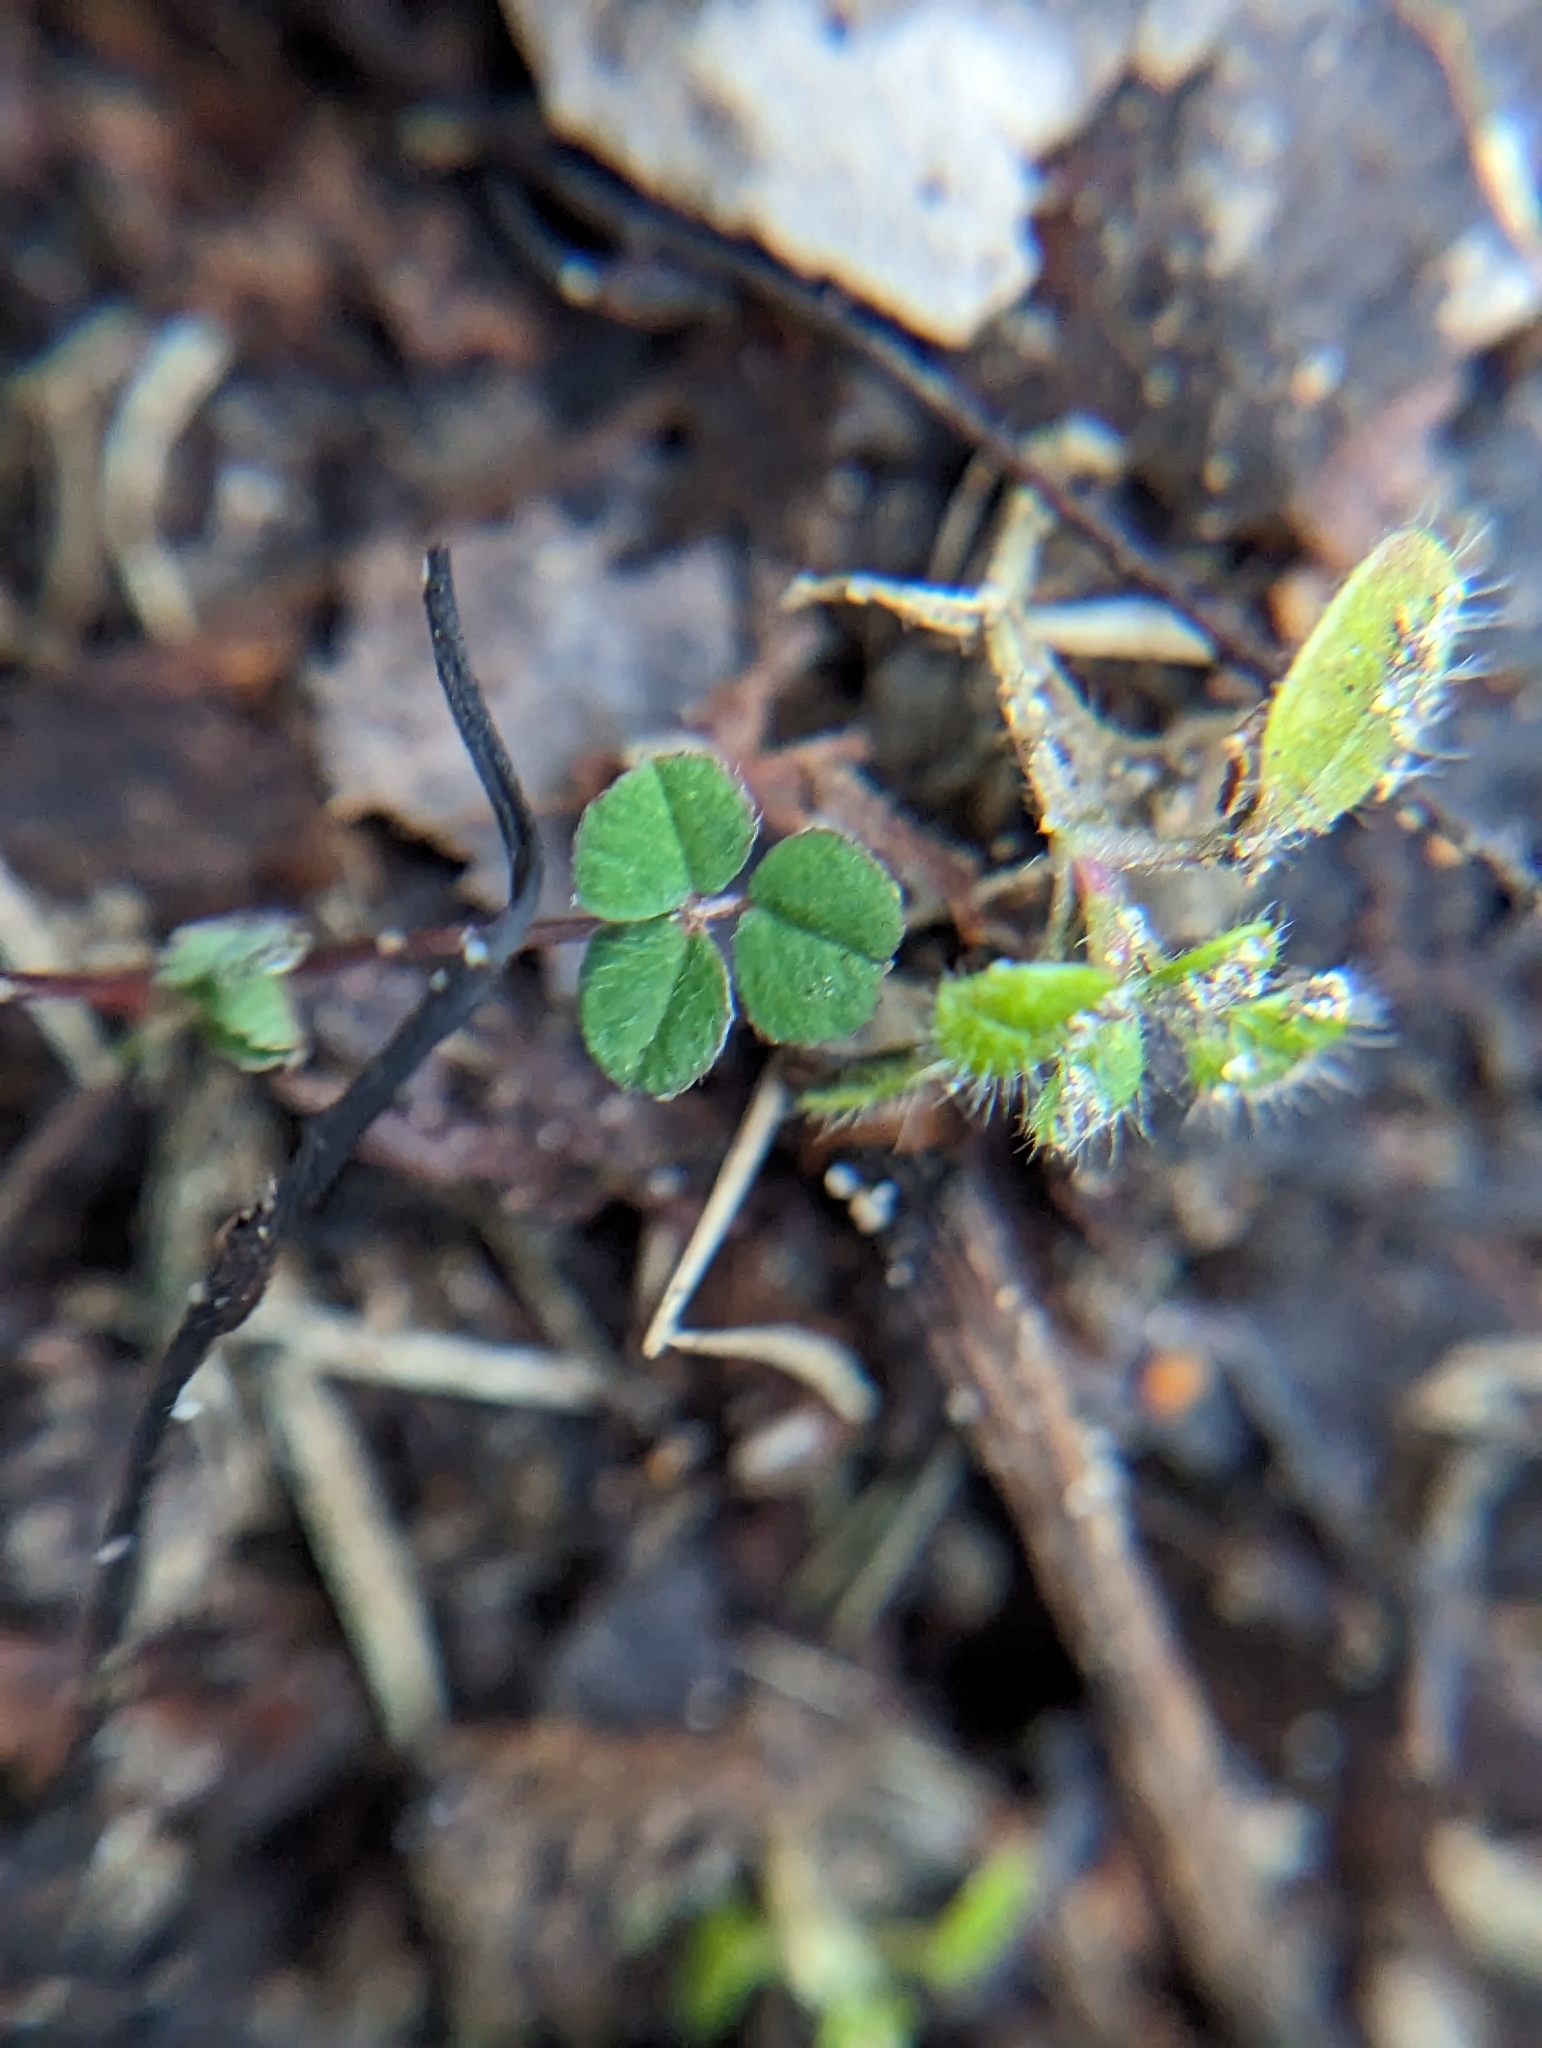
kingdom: Plantae
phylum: Tracheophyta
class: Magnoliopsida
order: Fabales
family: Fabaceae
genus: Medicago
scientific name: Medicago lupulina
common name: Black medick
